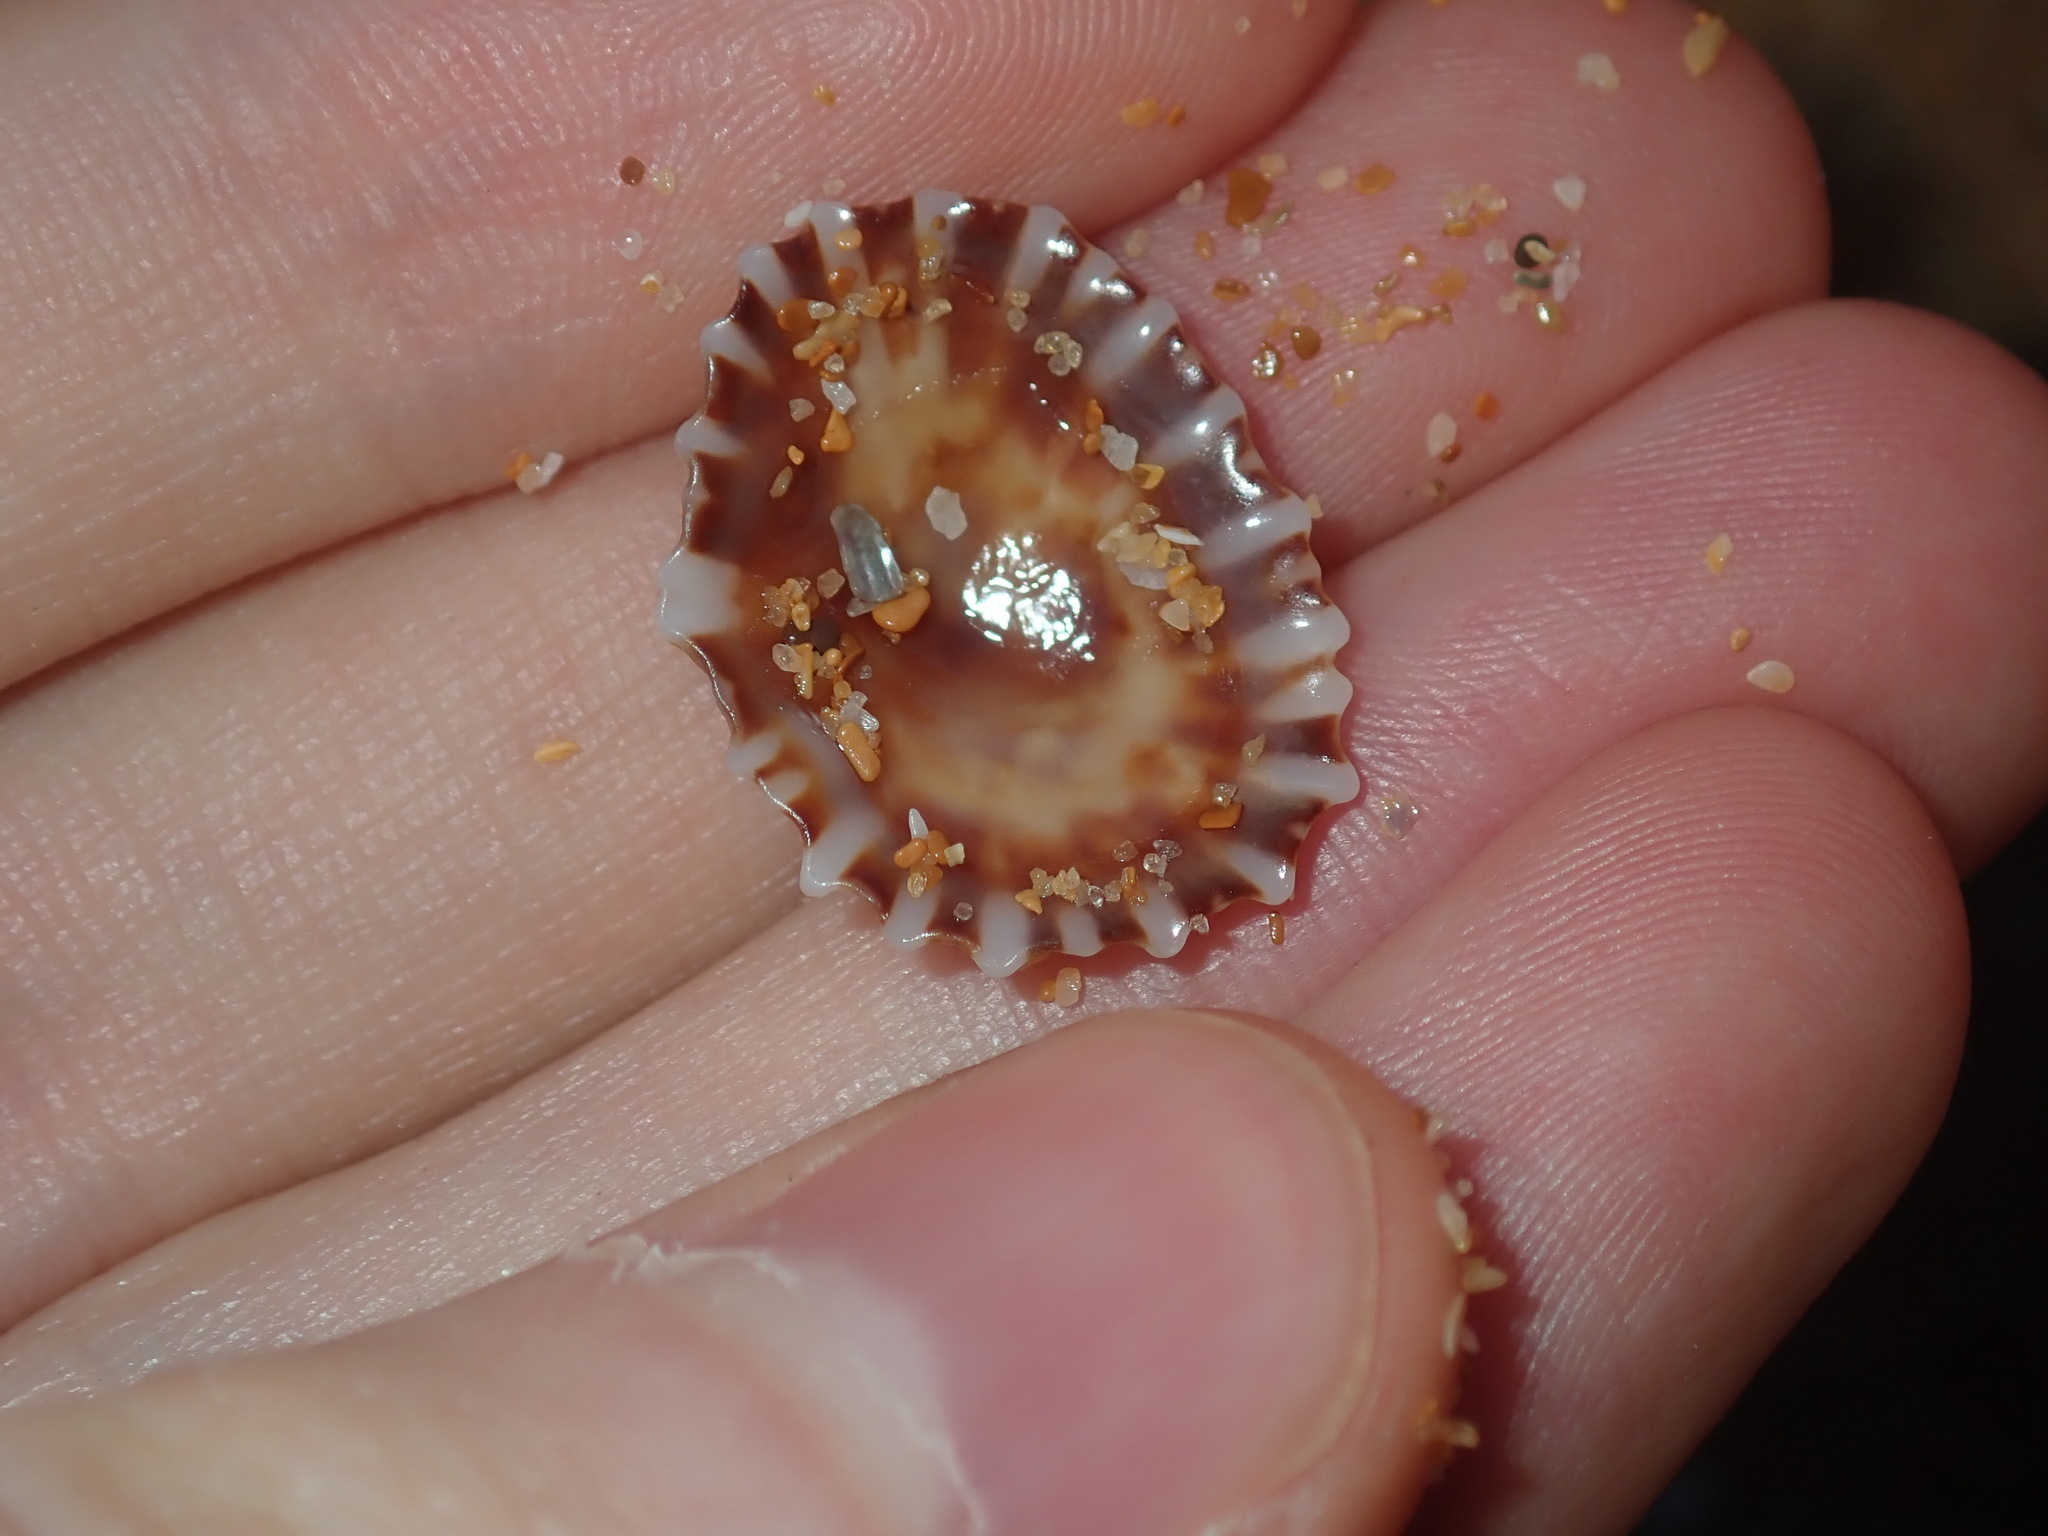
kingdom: Animalia
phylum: Mollusca
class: Gastropoda
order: Siphonariida
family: Siphonariidae
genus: Siphonaria
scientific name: Siphonaria denticulata
